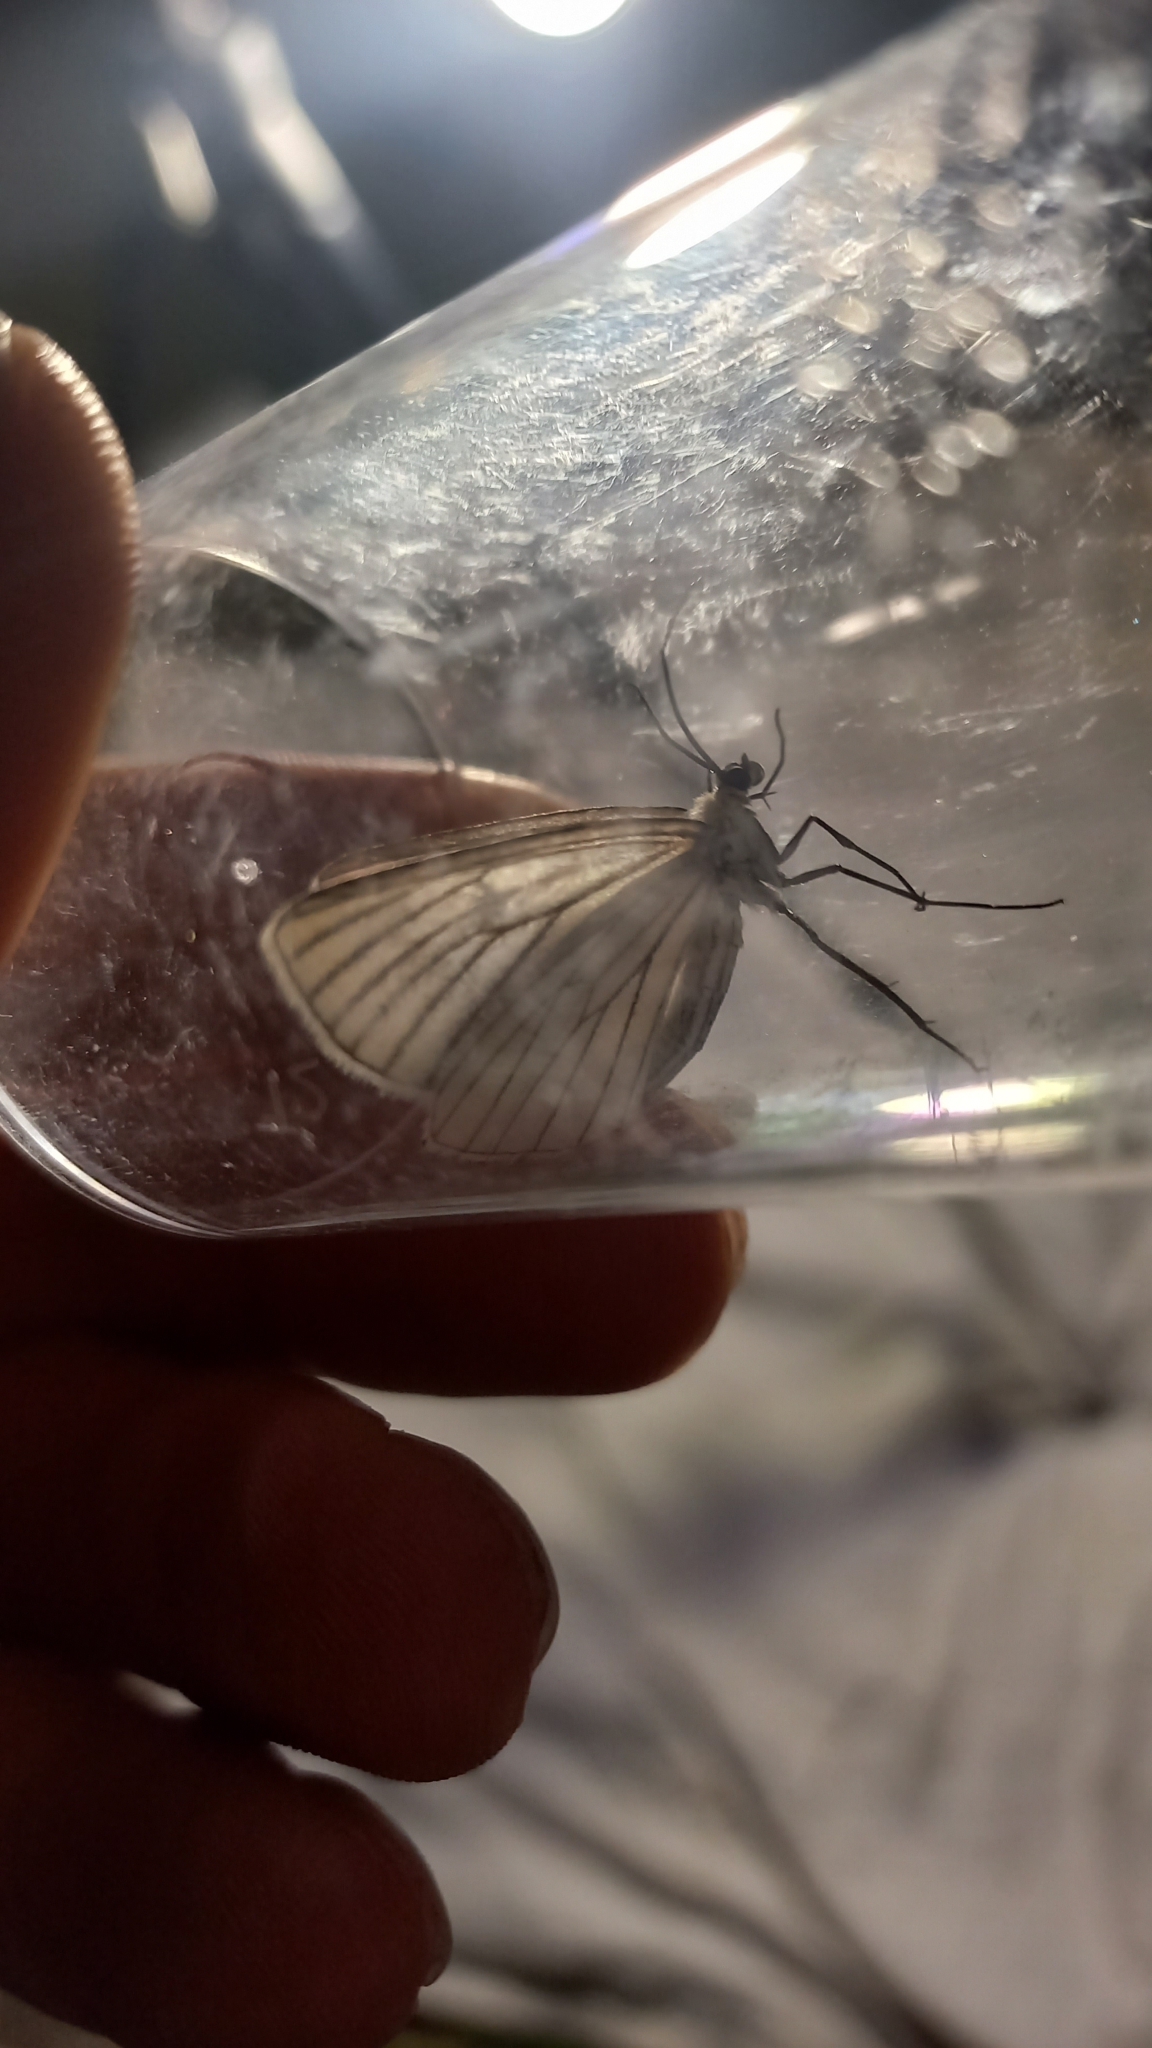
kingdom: Animalia
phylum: Arthropoda
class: Insecta
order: Lepidoptera
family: Geometridae
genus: Siona
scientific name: Siona lineata
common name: Black-veined moth
